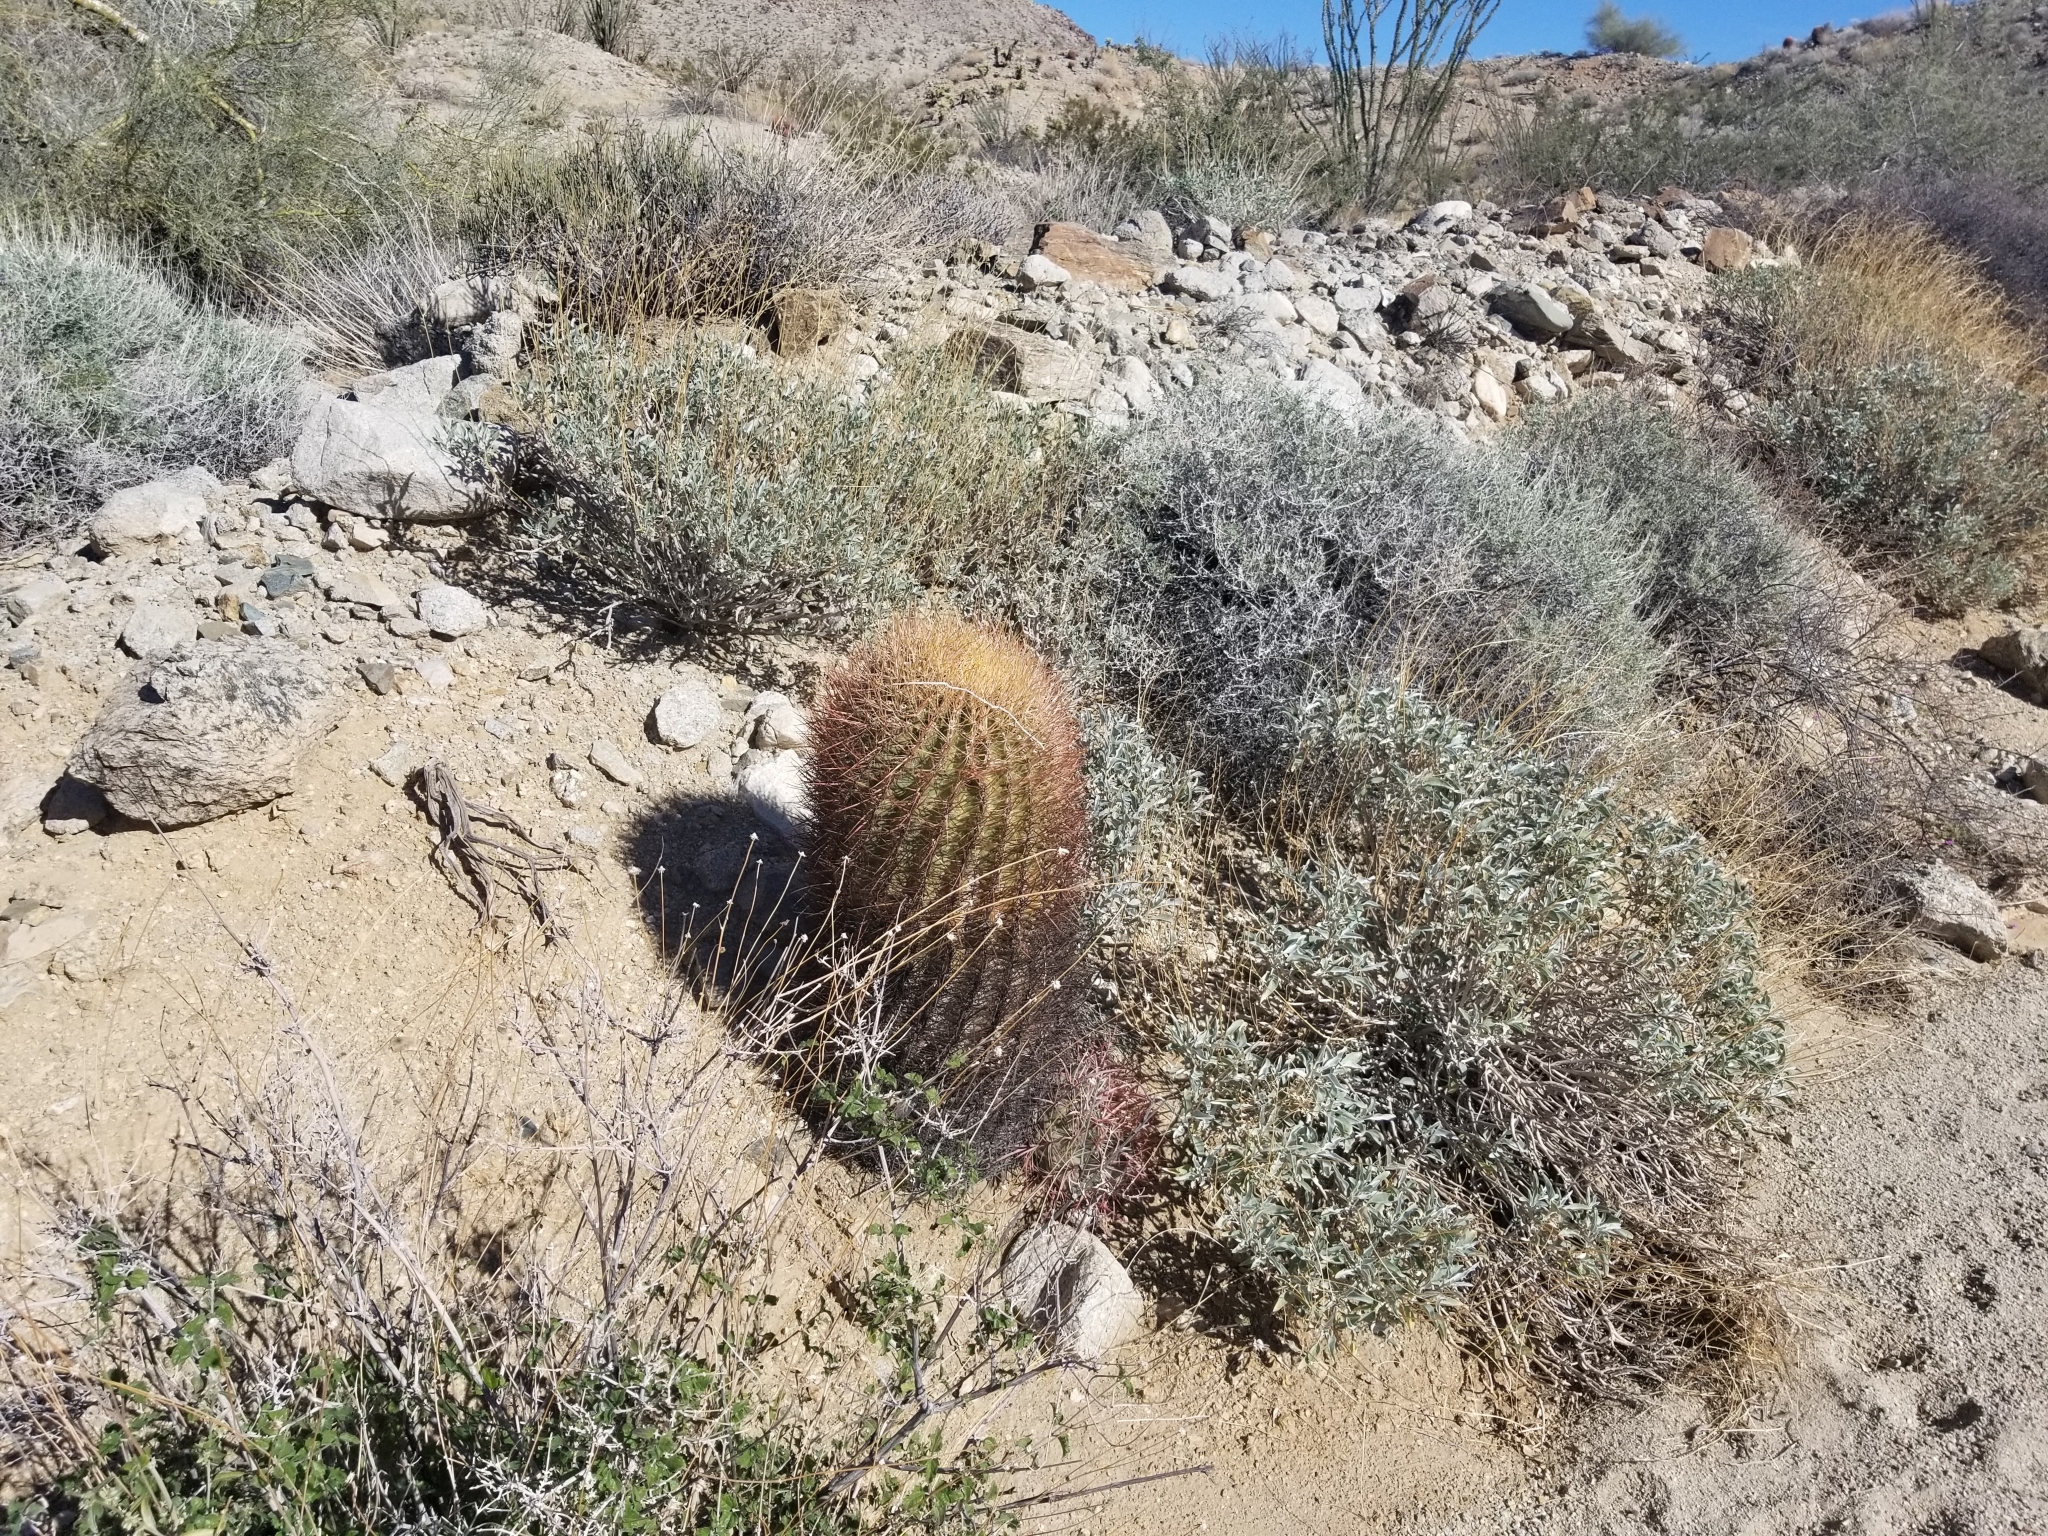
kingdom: Plantae
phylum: Tracheophyta
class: Magnoliopsida
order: Caryophyllales
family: Cactaceae
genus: Ferocactus
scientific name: Ferocactus cylindraceus
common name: California barrel cactus
